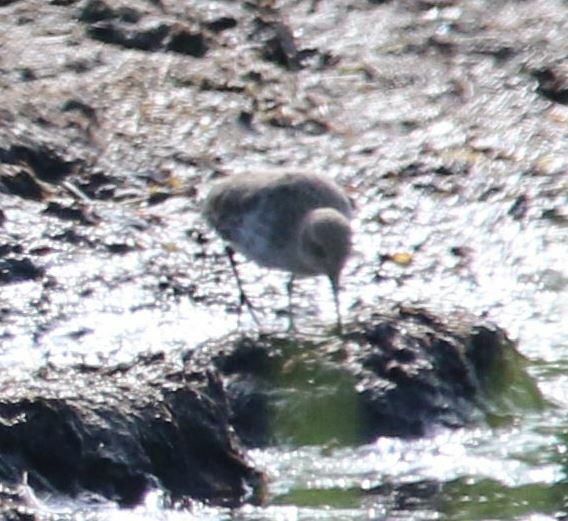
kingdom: Animalia
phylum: Chordata
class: Aves
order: Charadriiformes
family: Scolopacidae
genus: Calidris
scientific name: Calidris alpina
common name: Dunlin
